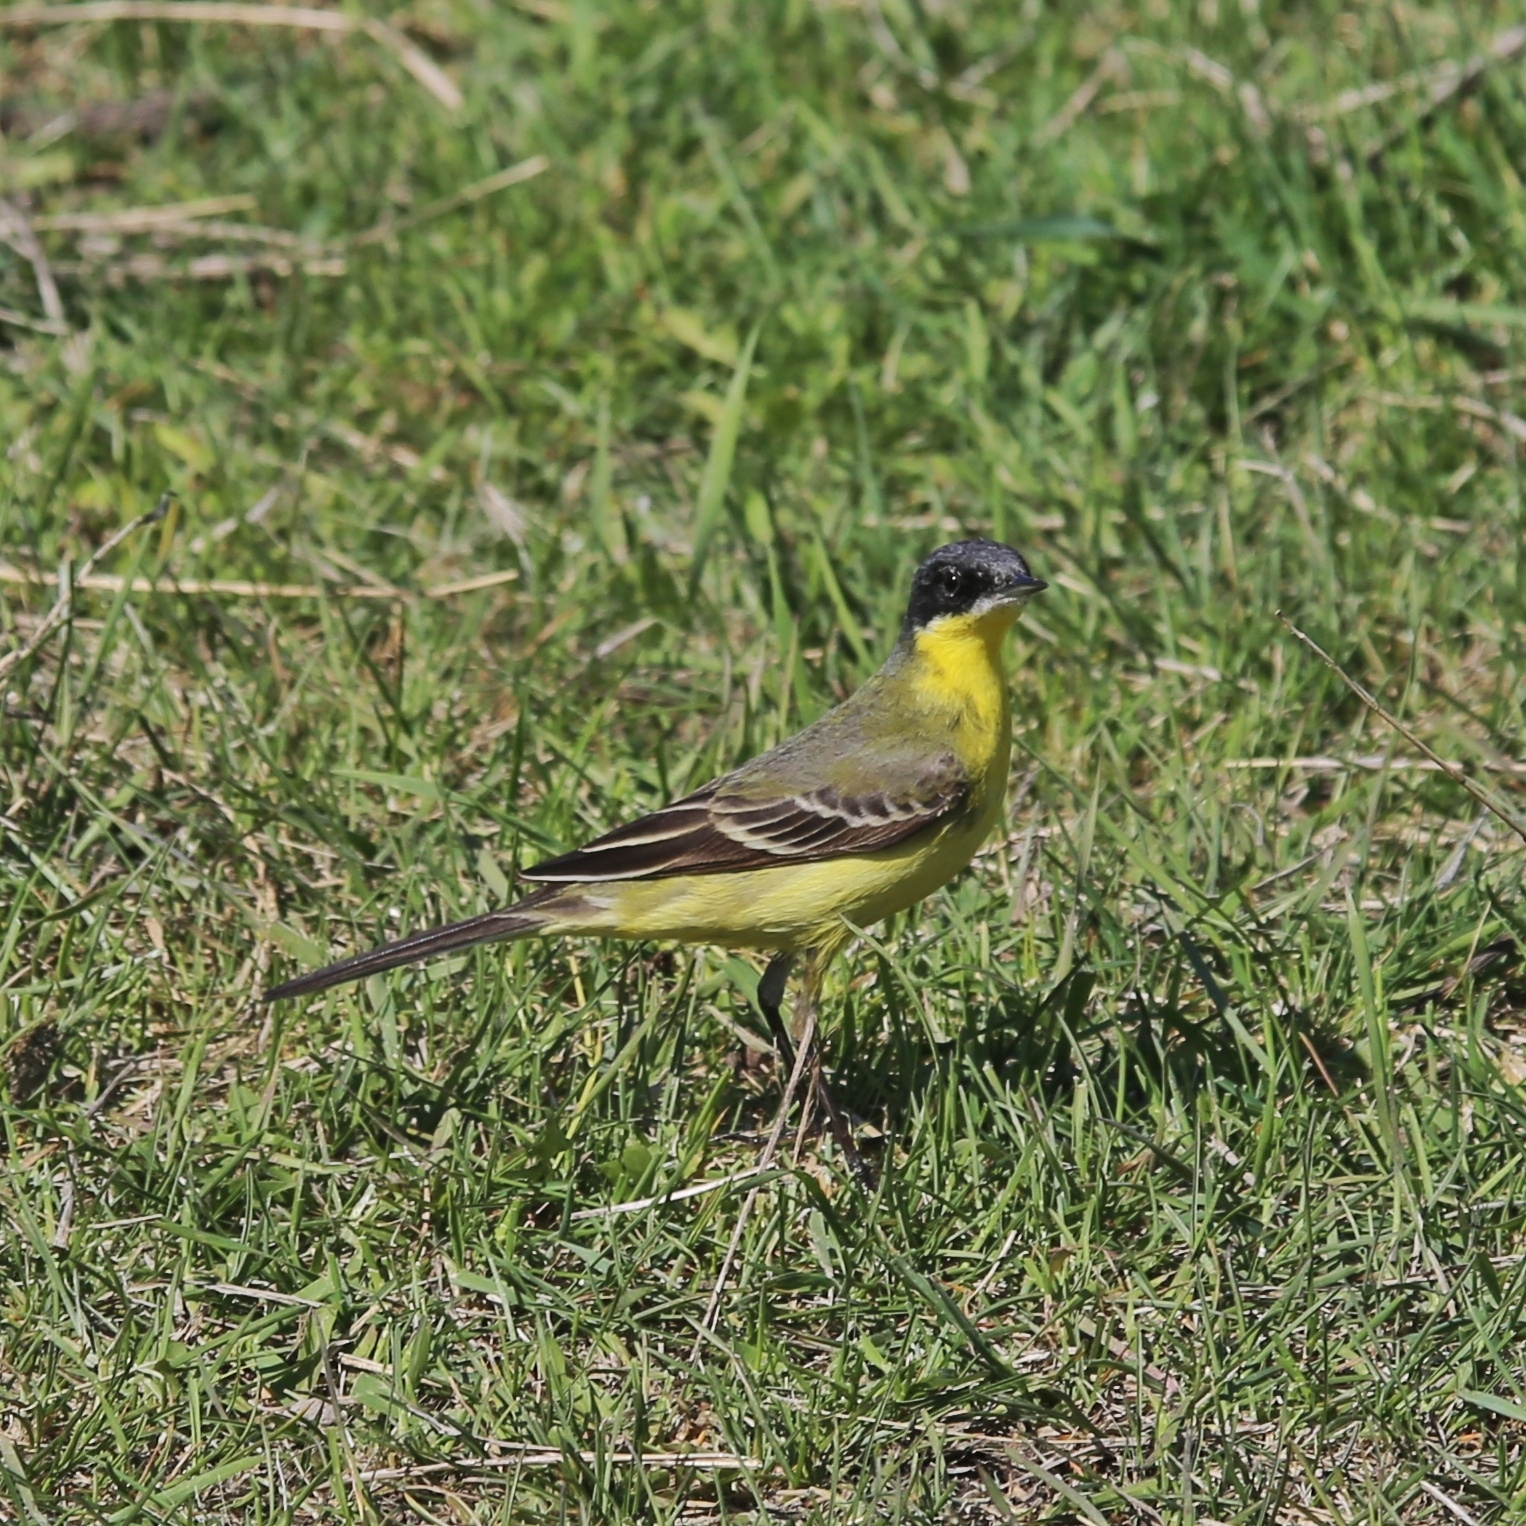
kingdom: Animalia
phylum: Chordata
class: Aves
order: Passeriformes
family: Motacillidae
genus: Motacilla
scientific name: Motacilla tschutschensis
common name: Eastern yellow wagtail
